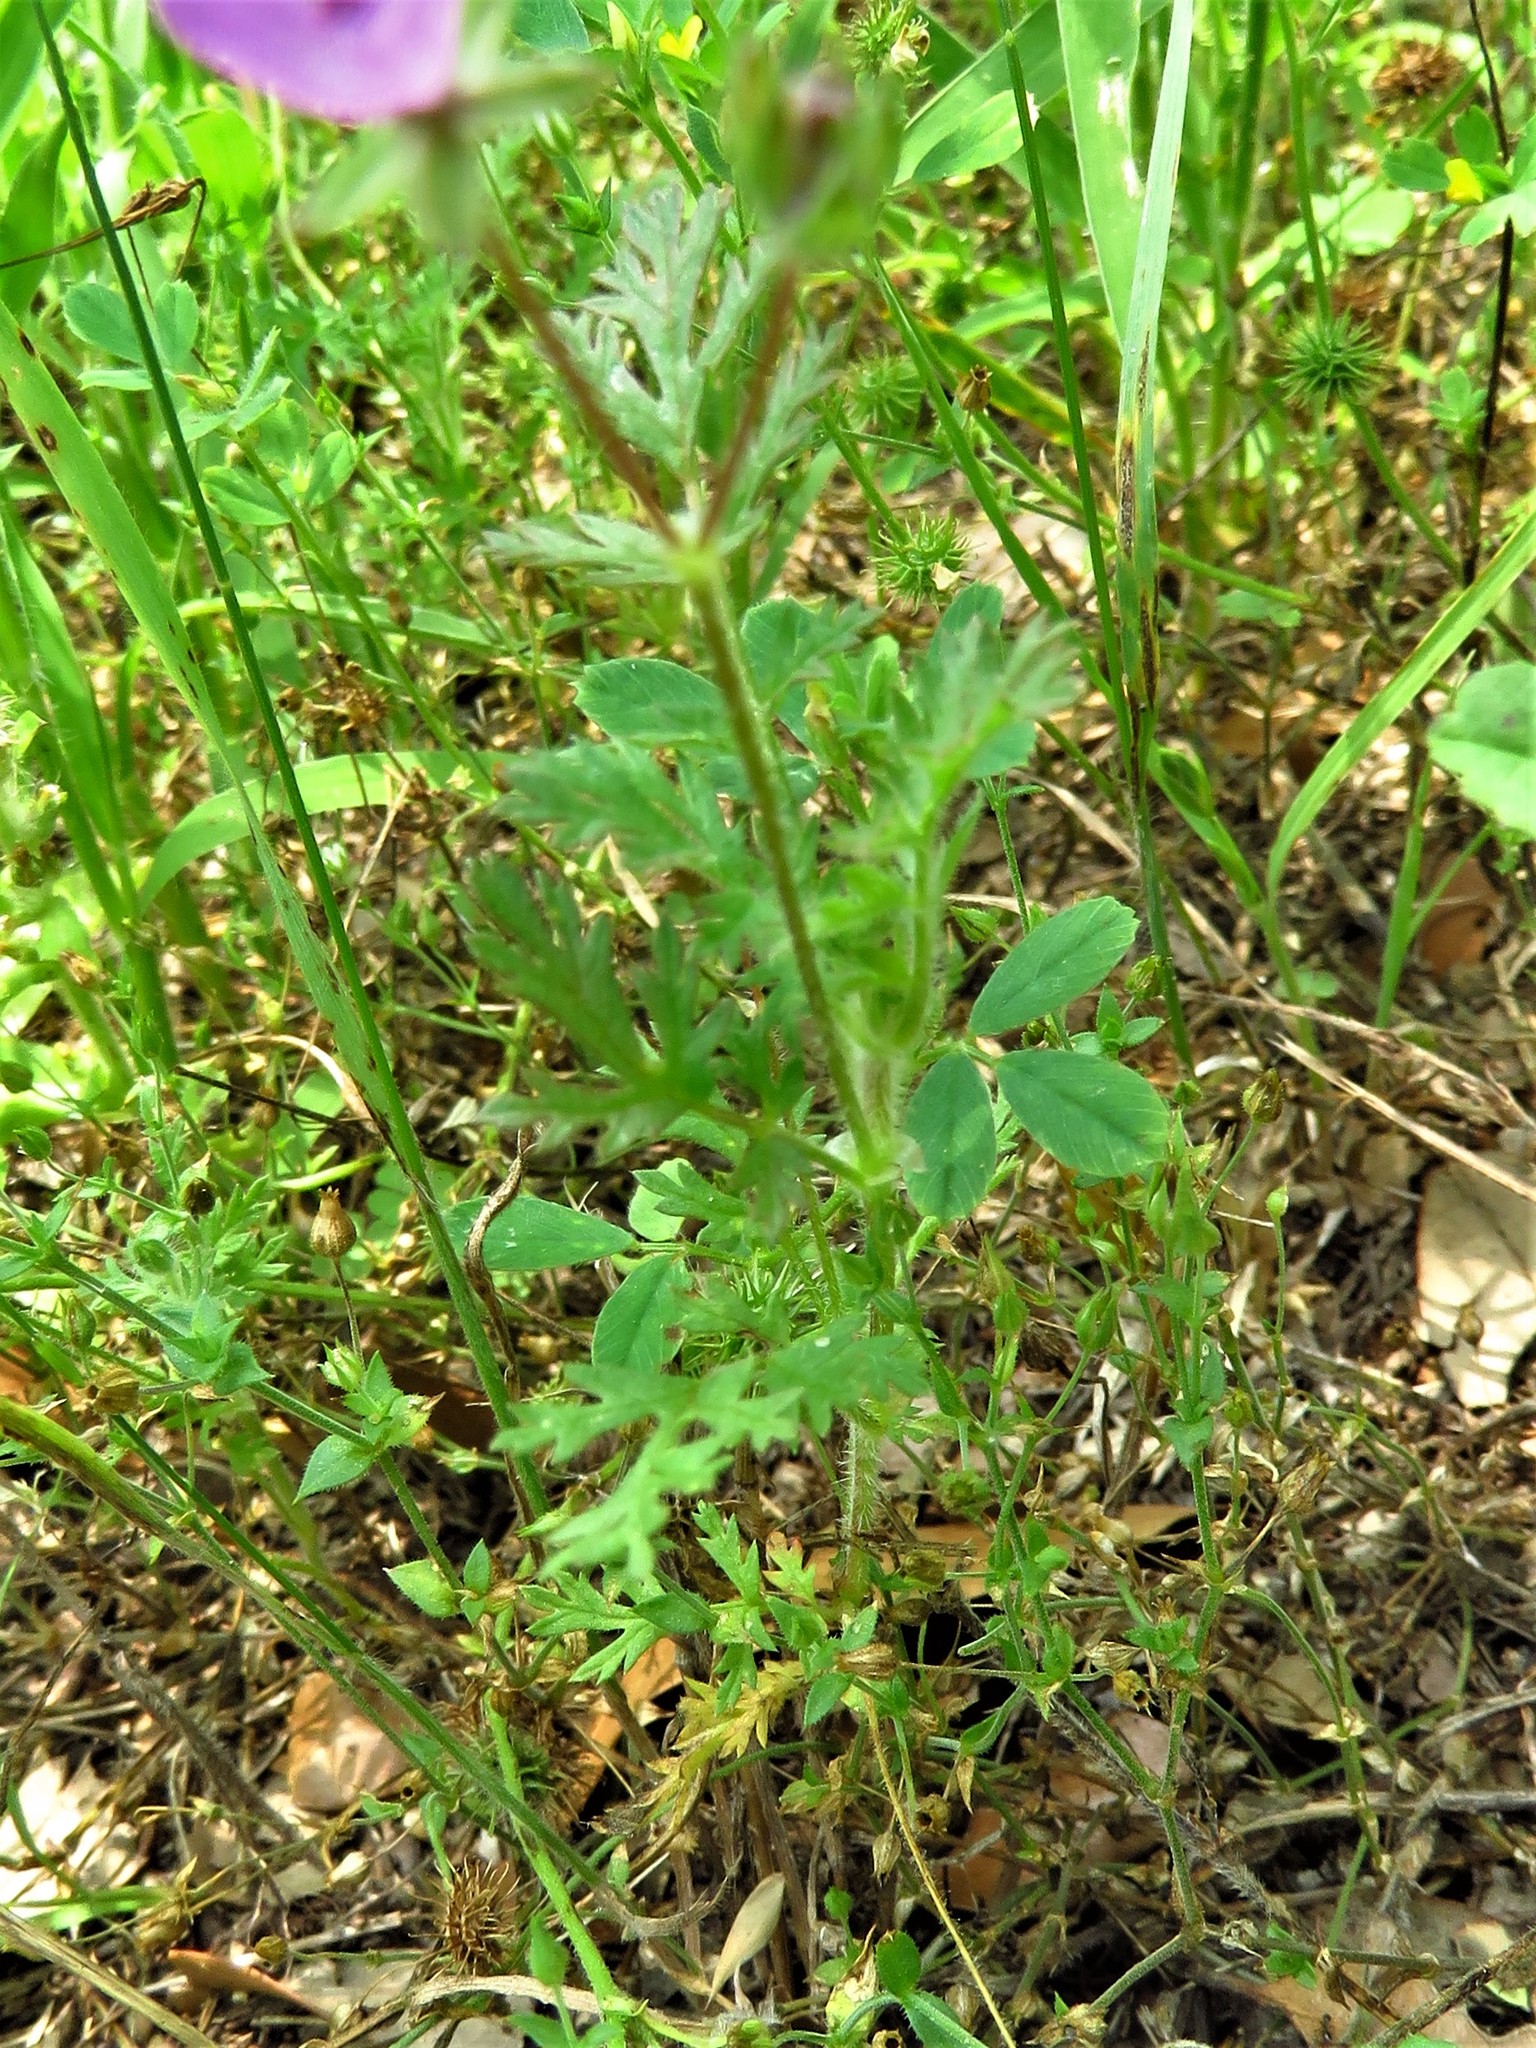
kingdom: Plantae
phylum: Tracheophyta
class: Magnoliopsida
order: Geraniales
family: Geraniaceae
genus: Erodium
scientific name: Erodium cicutarium
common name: Common stork's-bill
